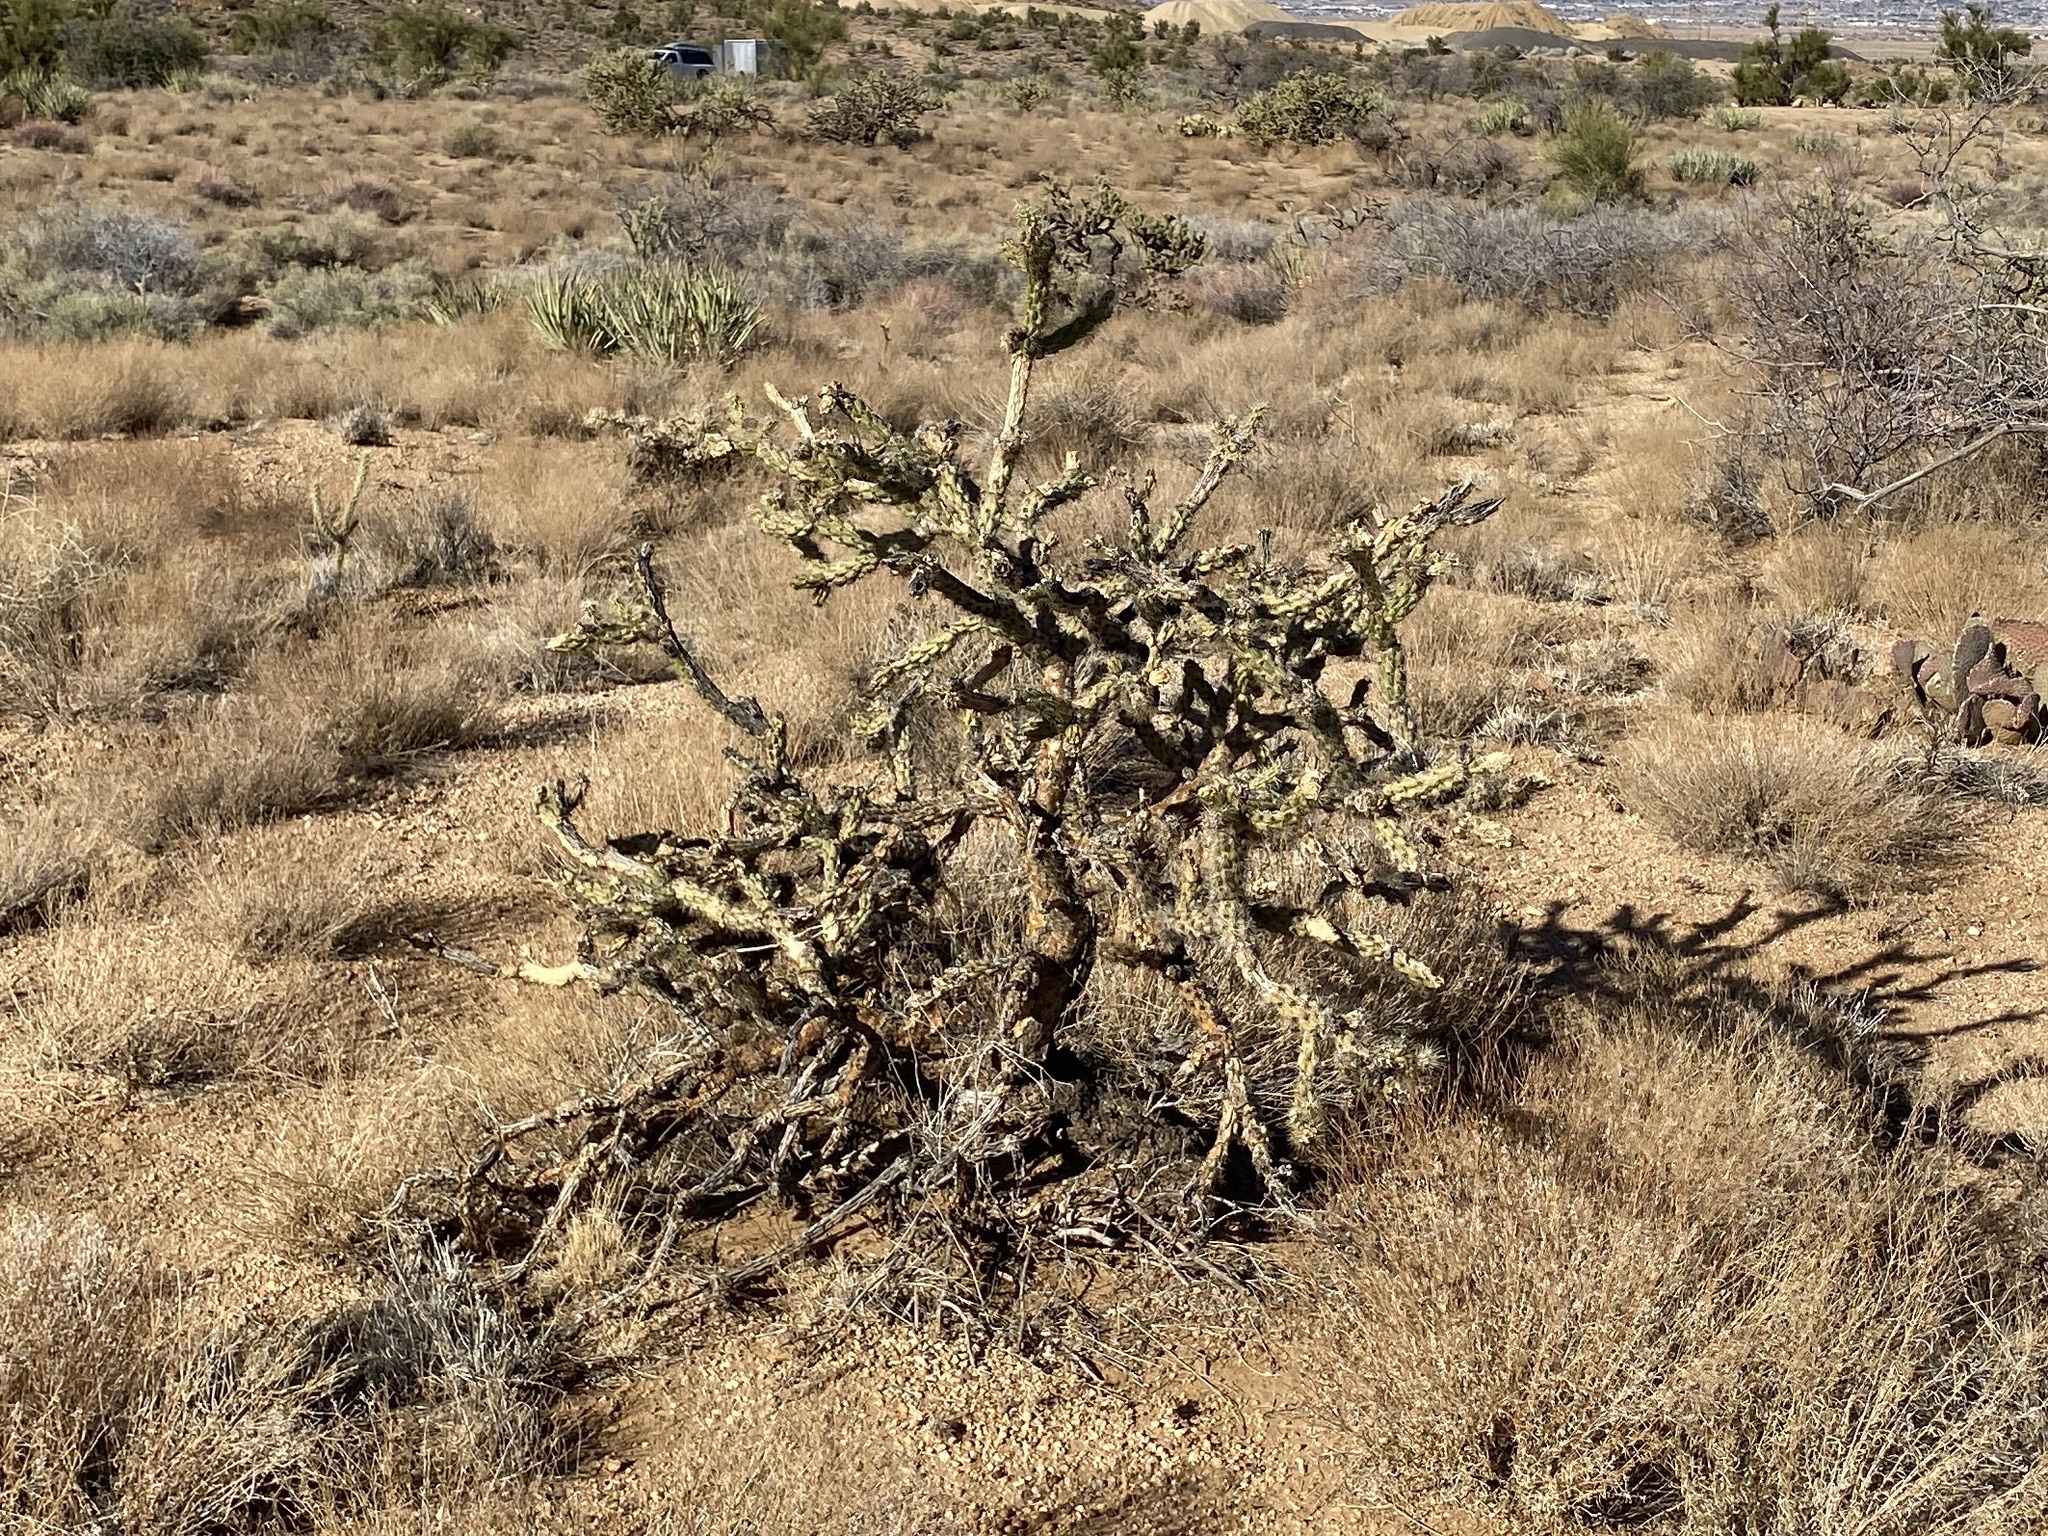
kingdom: Plantae
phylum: Tracheophyta
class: Magnoliopsida
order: Caryophyllales
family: Cactaceae
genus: Cylindropuntia
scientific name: Cylindropuntia acanthocarpa
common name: Buckhorn cholla
